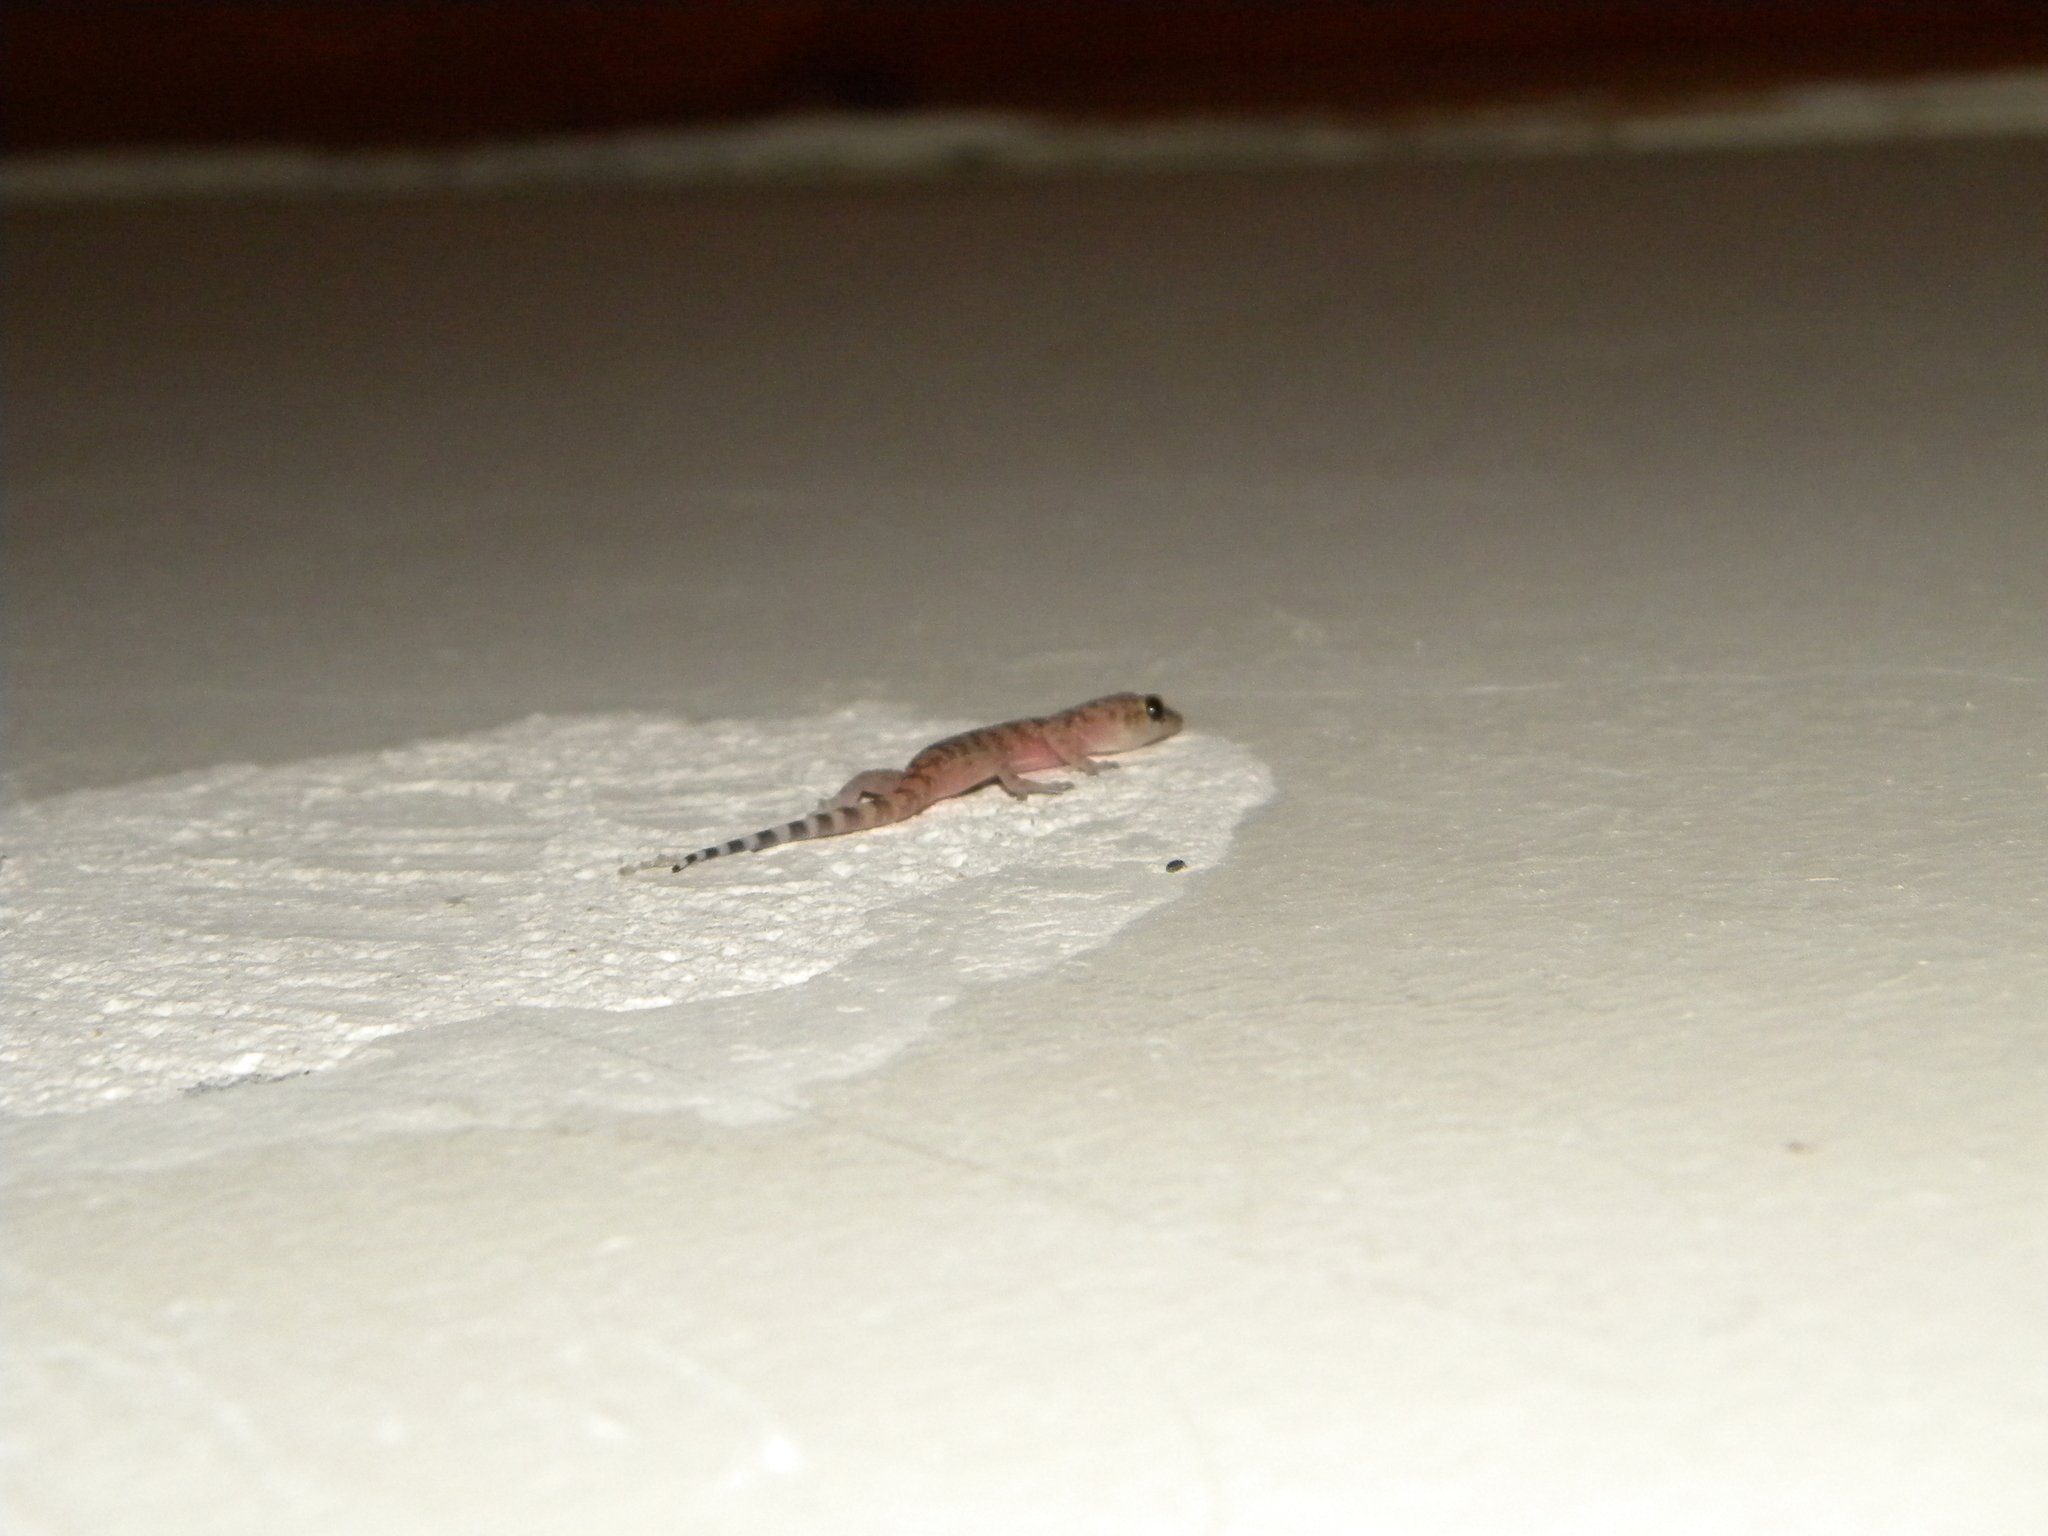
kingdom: Animalia
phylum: Chordata
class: Squamata
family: Gekkonidae
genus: Hemidactylus
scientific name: Hemidactylus turcicus
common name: Turkish gecko
